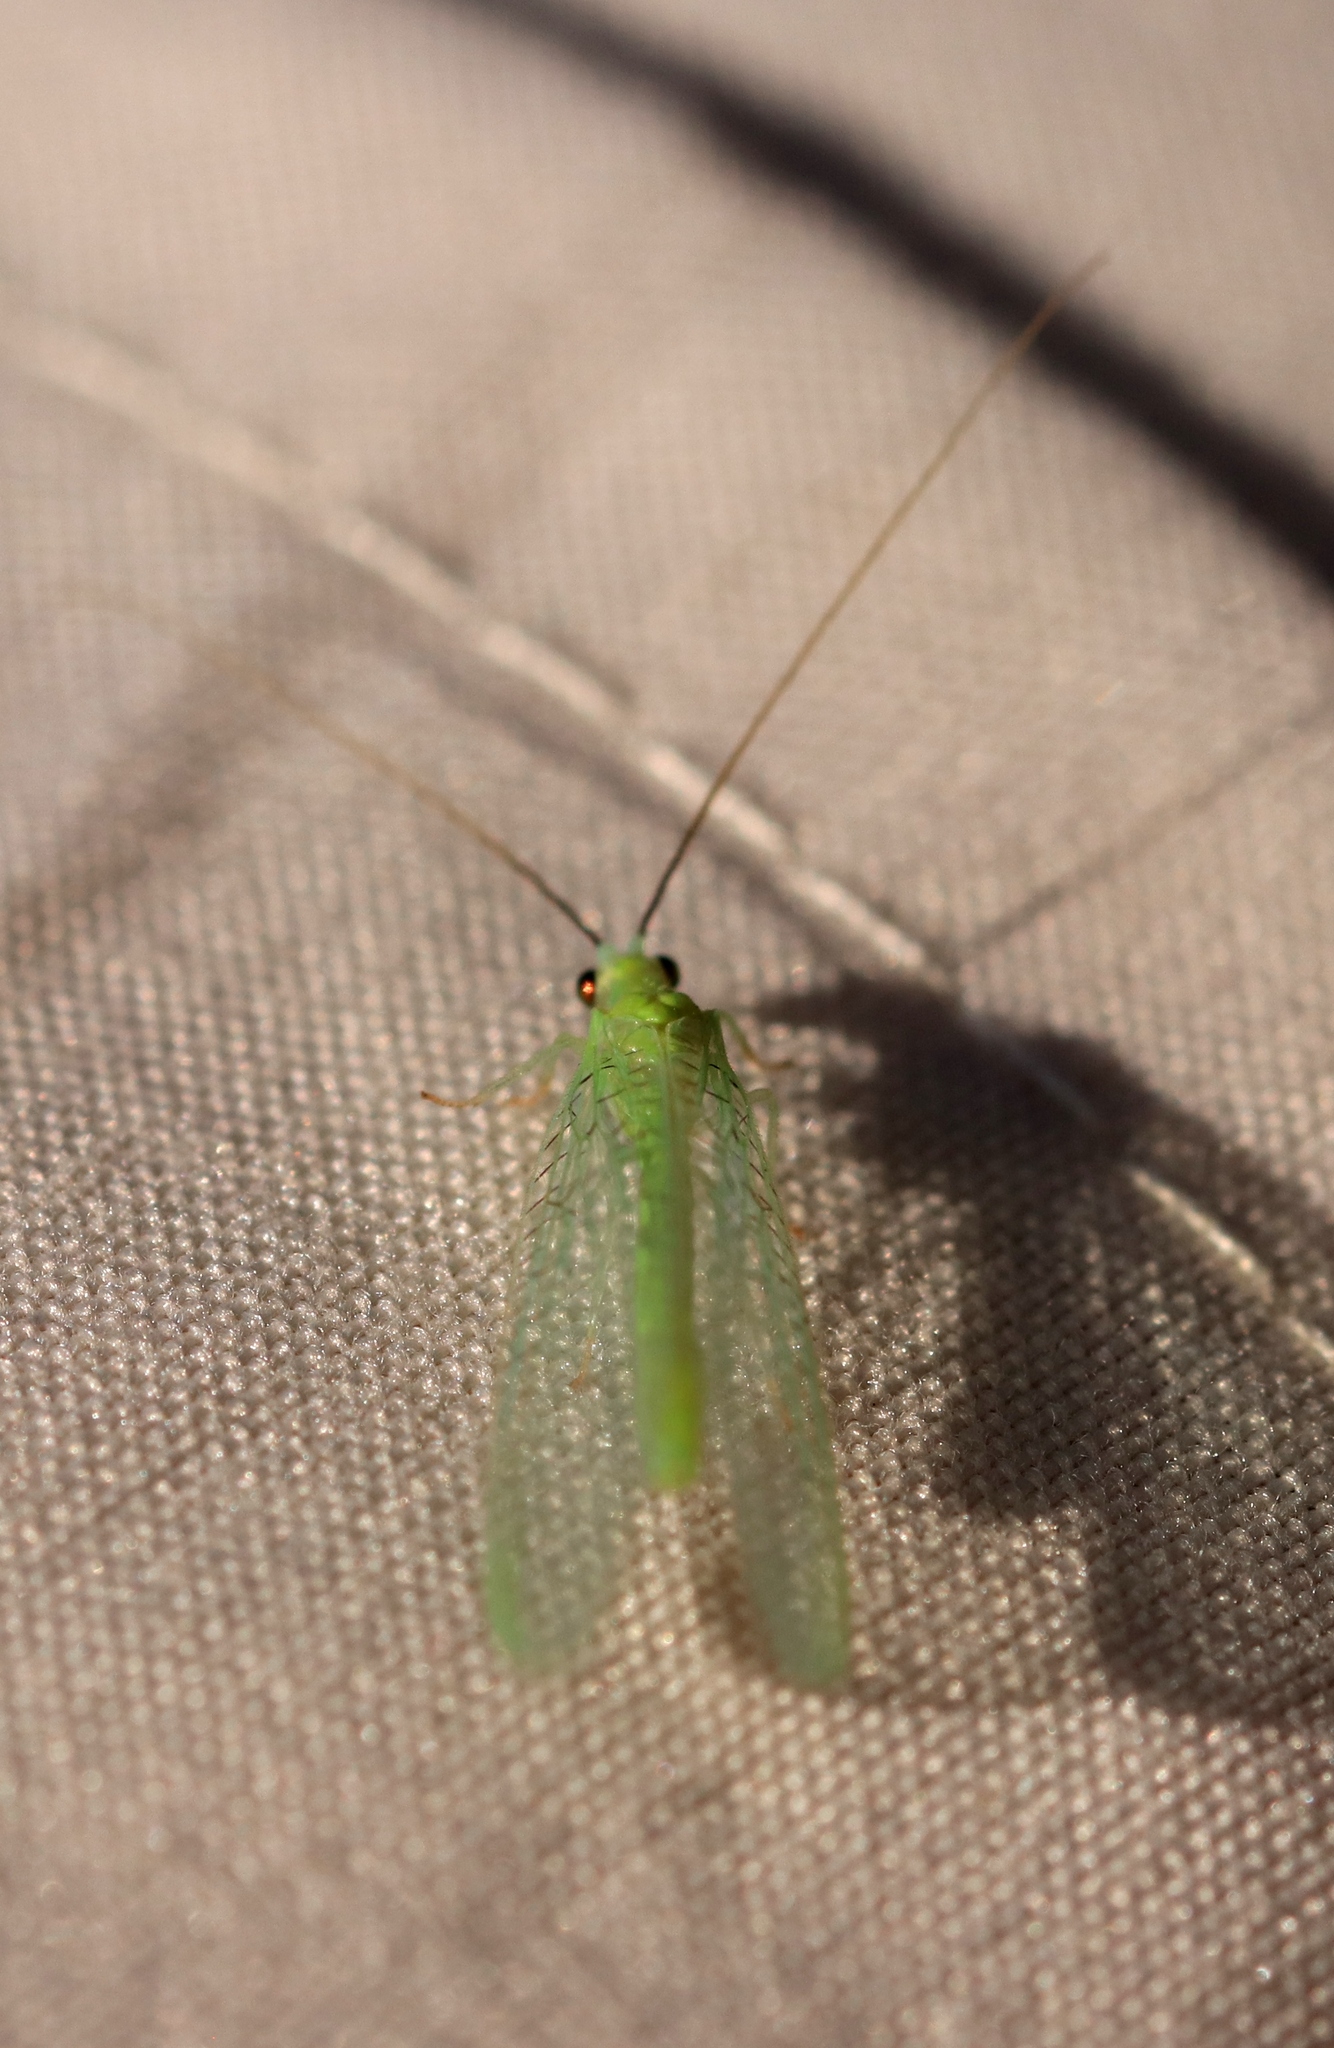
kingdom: Animalia
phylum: Arthropoda
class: Insecta
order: Neuroptera
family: Chrysopidae
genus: Chrysopa
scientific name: Chrysopa nigricornis
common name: Black-horned green lacewing
